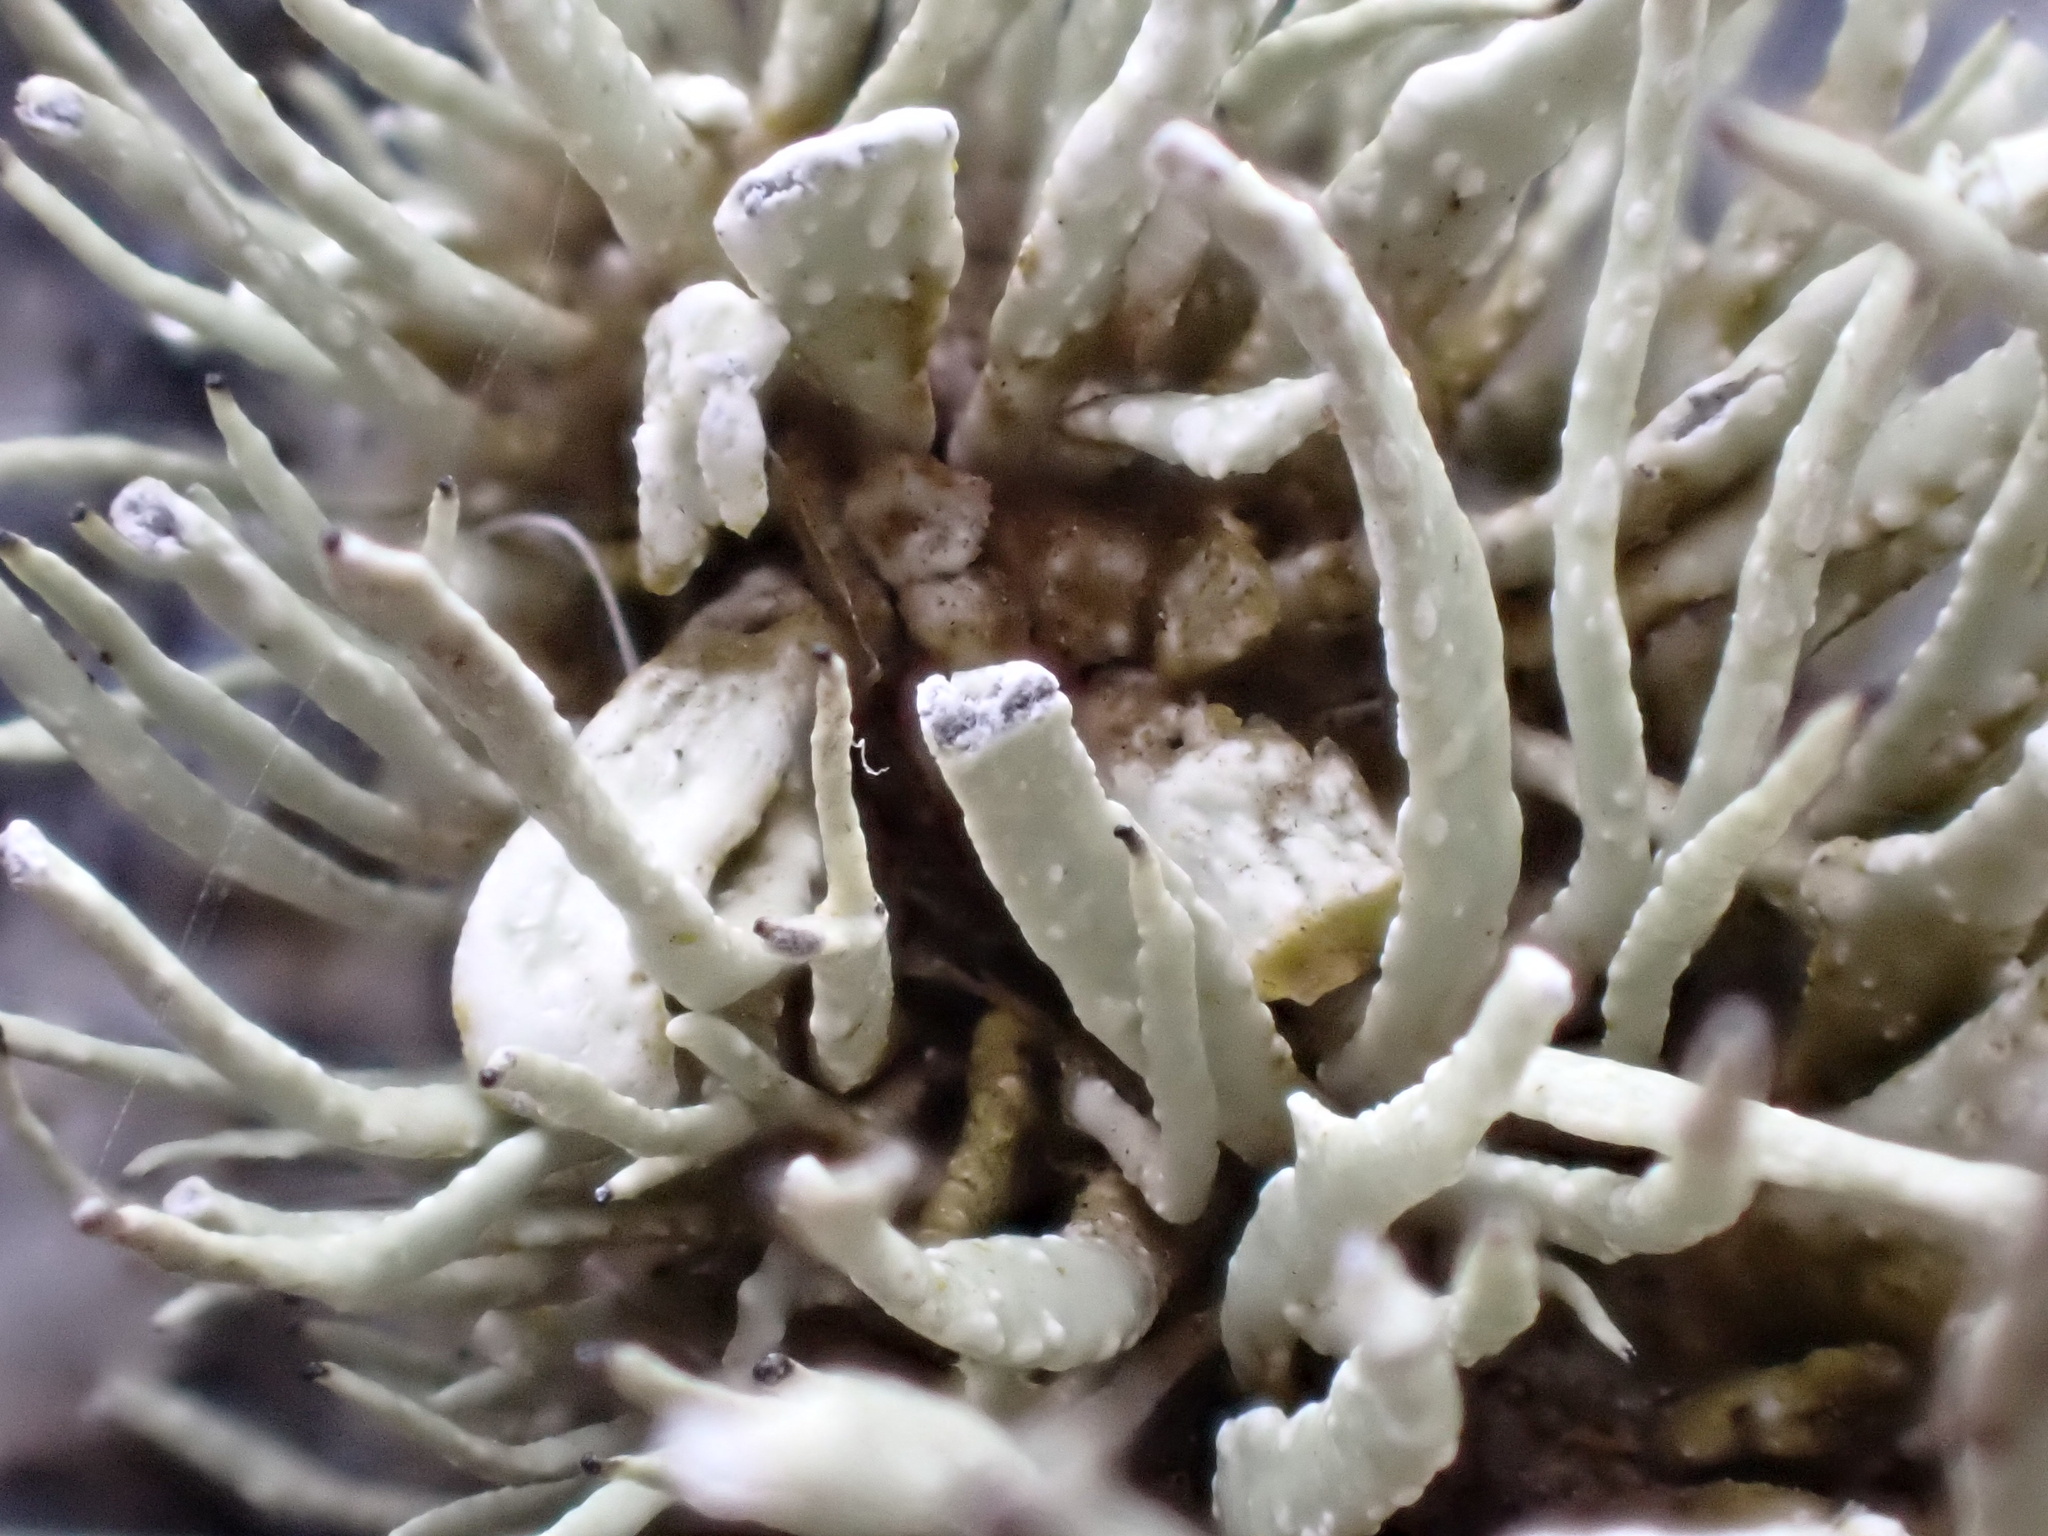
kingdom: Fungi
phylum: Ascomycota
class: Lecanoromycetes
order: Lecanorales
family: Ramalinaceae
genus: Ramalina
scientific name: Ramalina siliquosa
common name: Sea ivory
